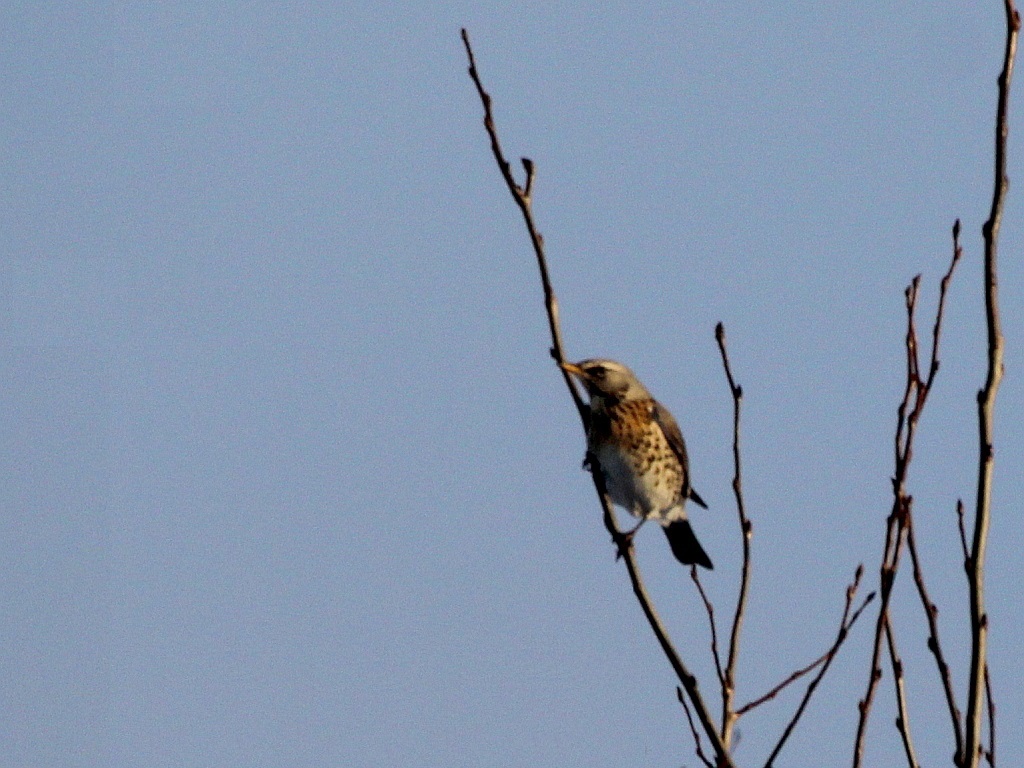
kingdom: Animalia
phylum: Chordata
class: Aves
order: Passeriformes
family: Turdidae
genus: Turdus
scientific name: Turdus pilaris
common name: Fieldfare
